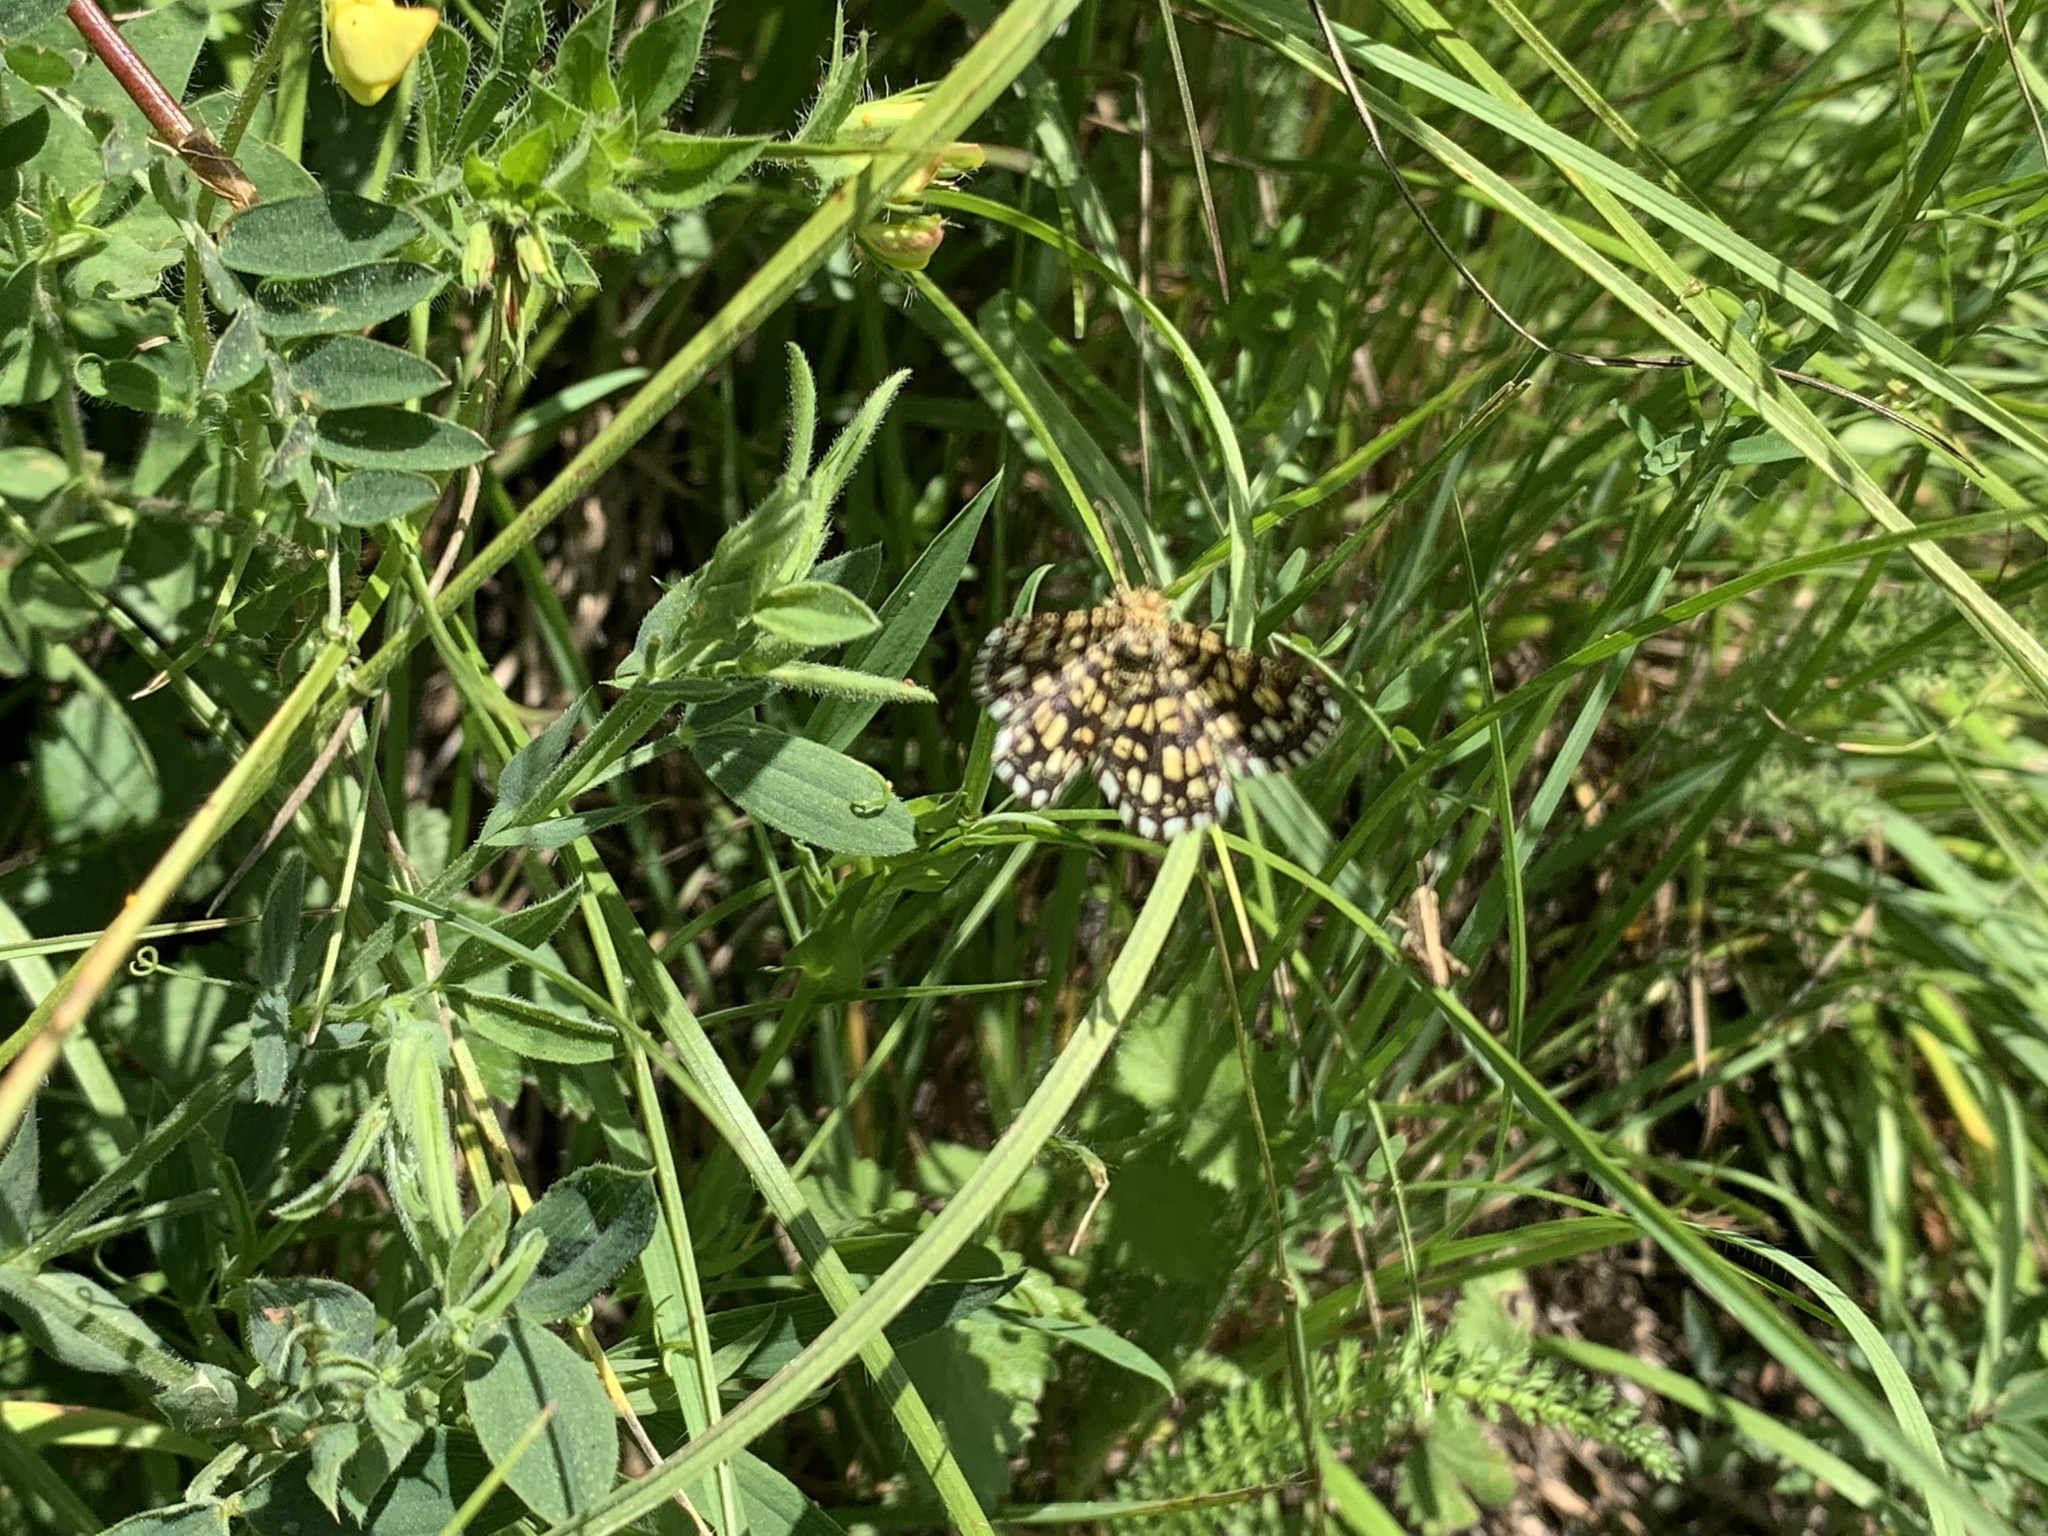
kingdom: Animalia
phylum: Arthropoda
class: Insecta
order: Lepidoptera
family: Geometridae
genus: Chiasmia
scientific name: Chiasmia clathrata
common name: Latticed heath
